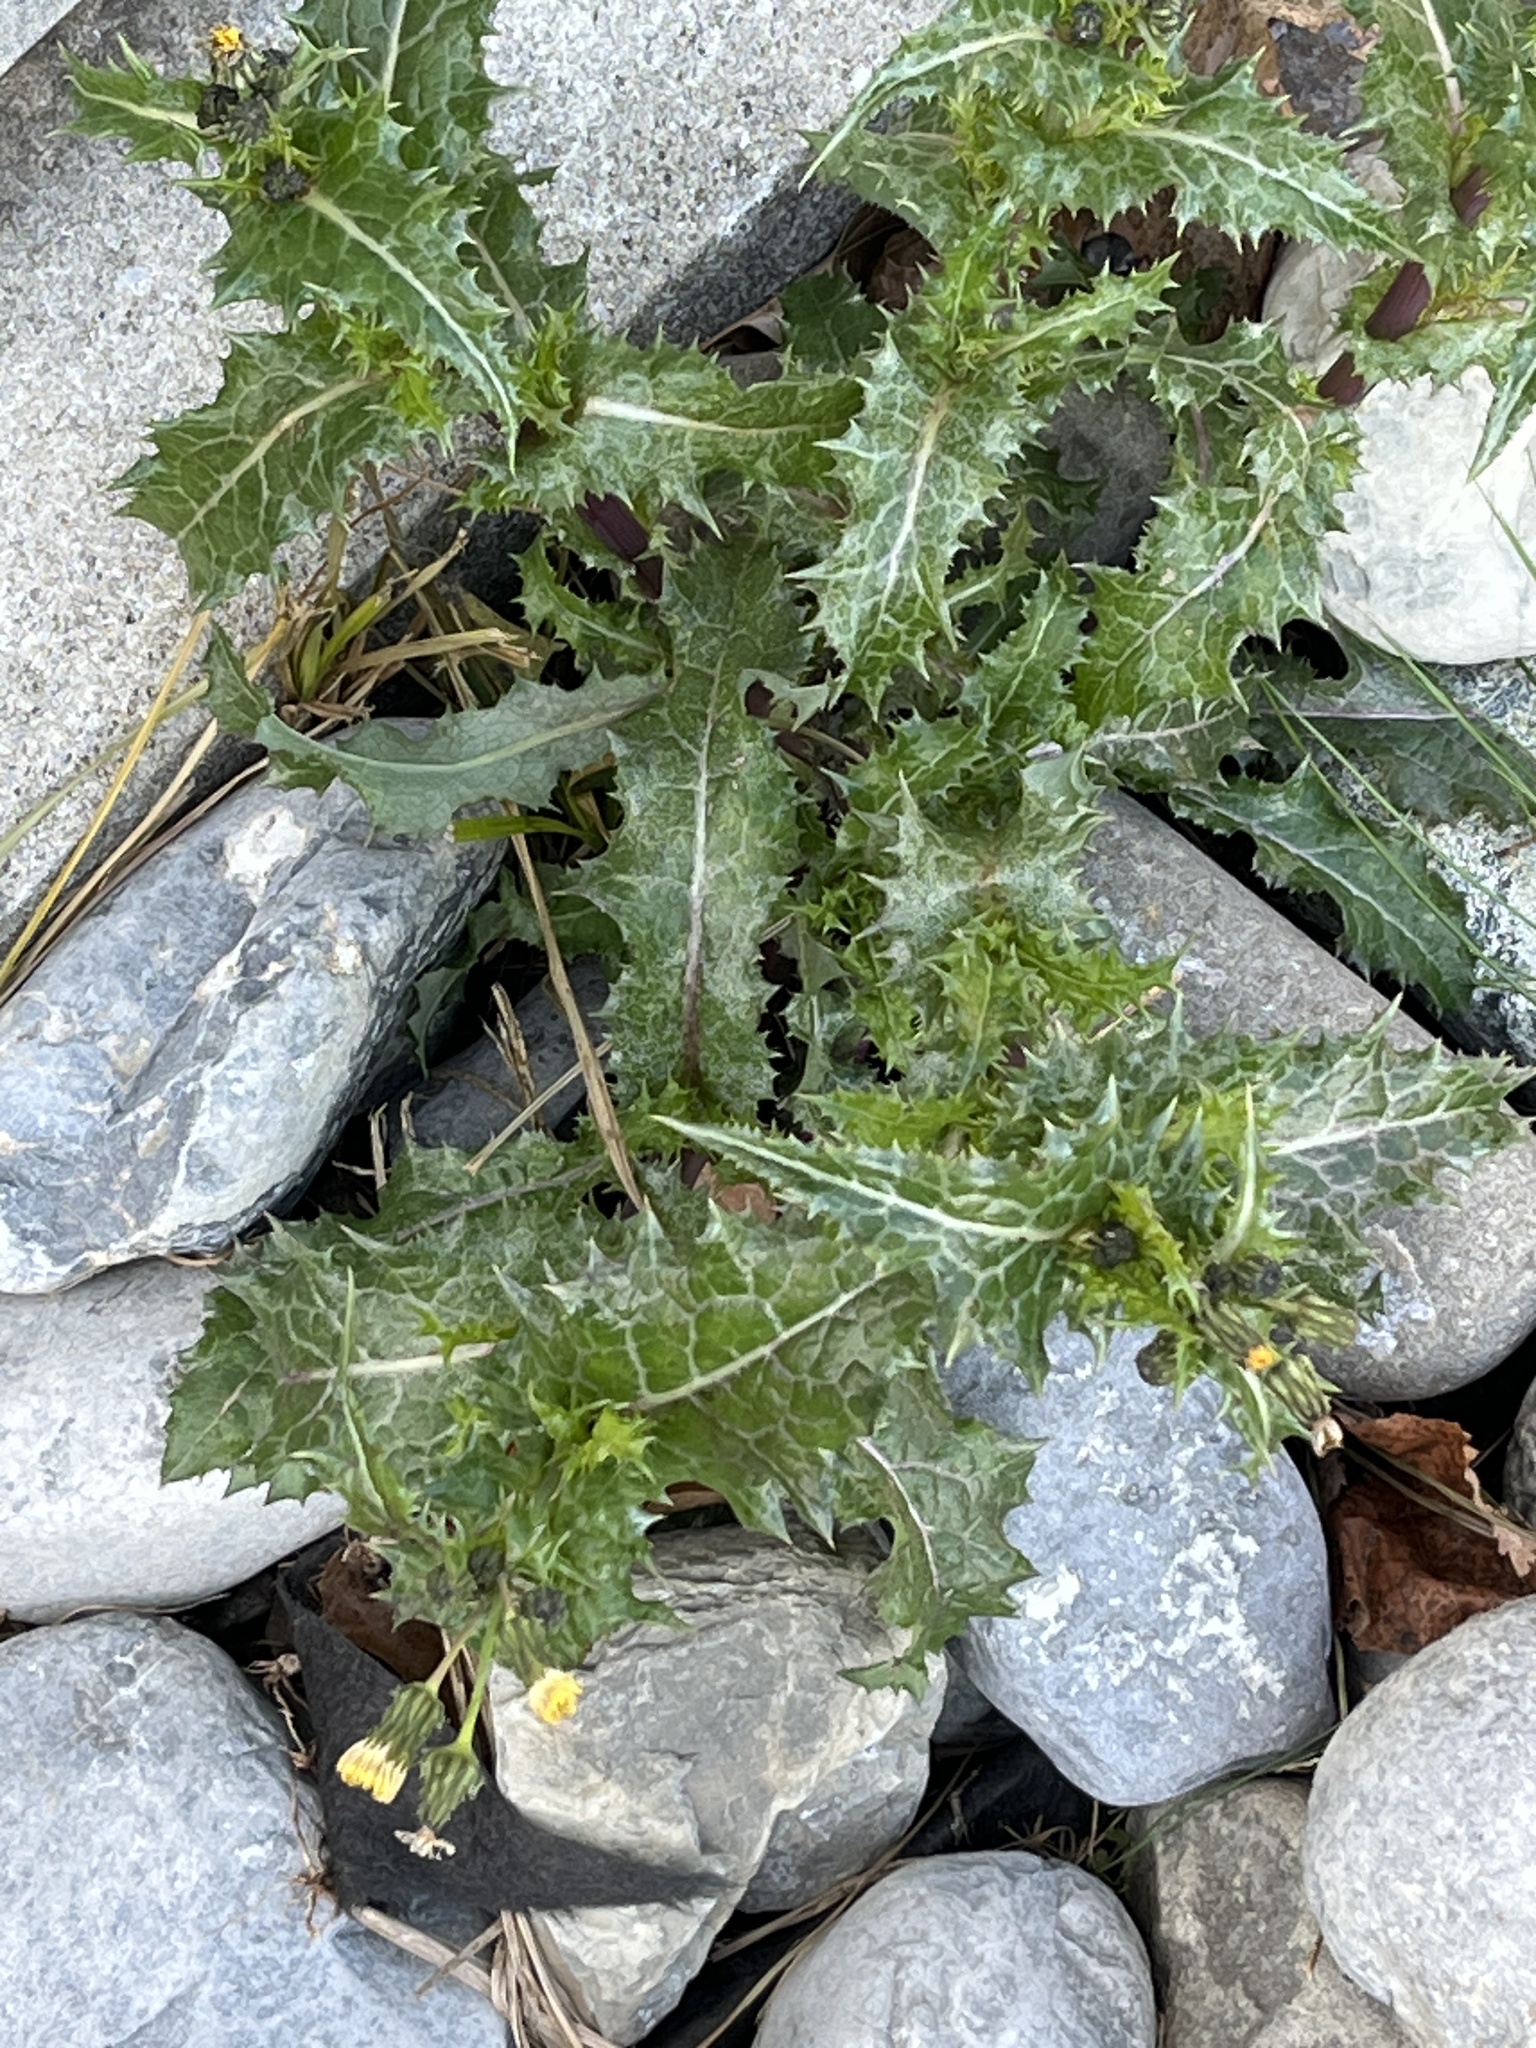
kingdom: Plantae
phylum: Tracheophyta
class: Magnoliopsida
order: Asterales
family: Asteraceae
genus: Sonchus
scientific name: Sonchus asper
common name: Prickly sow-thistle
